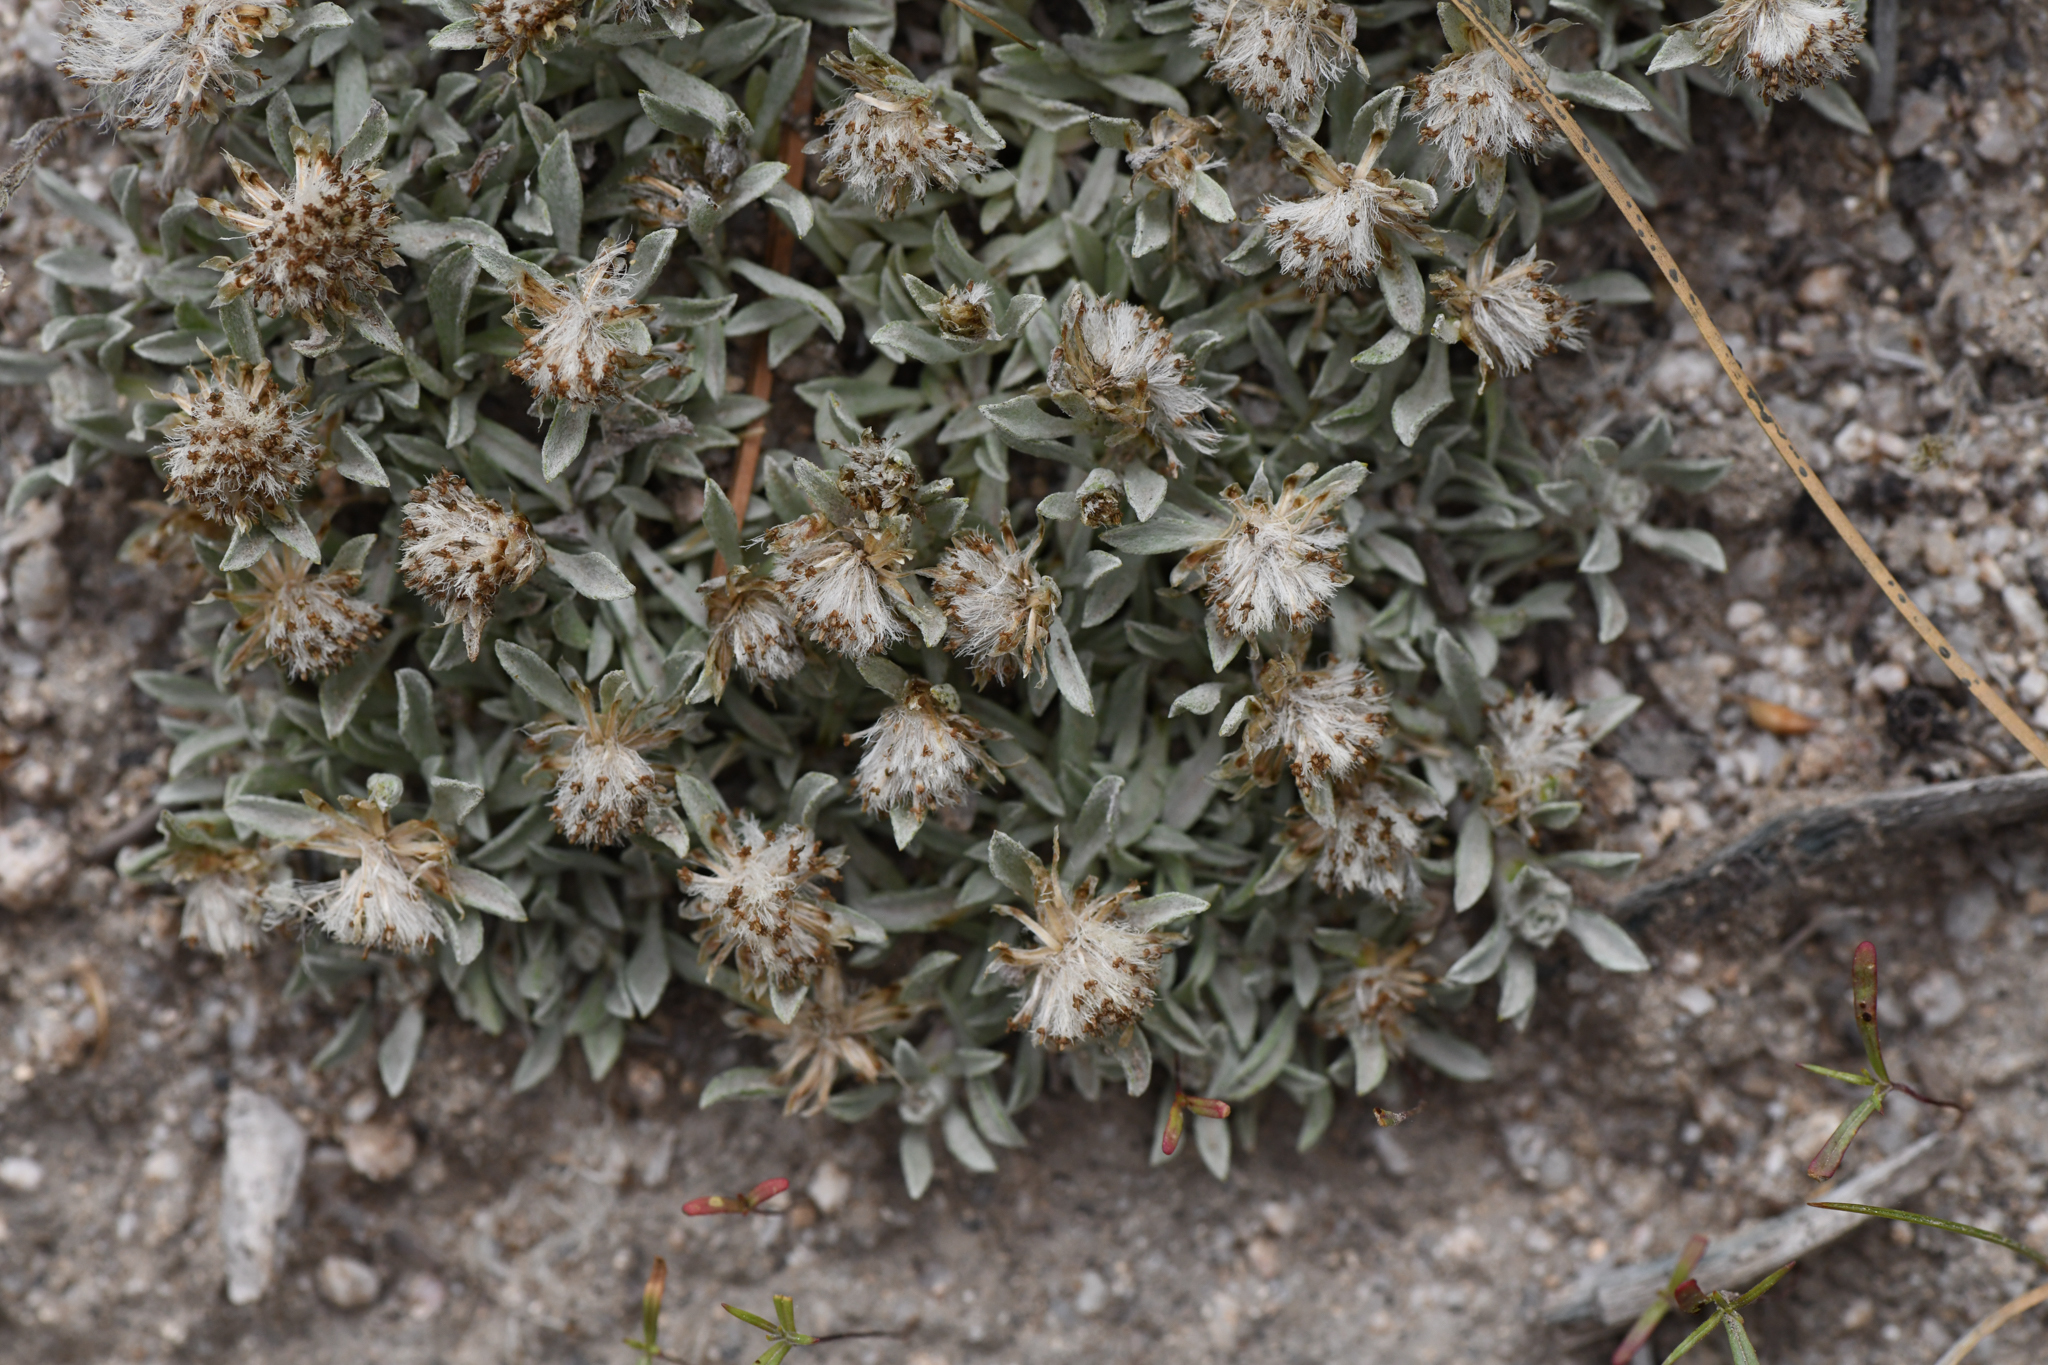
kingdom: Plantae
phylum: Tracheophyta
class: Magnoliopsida
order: Asterales
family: Asteraceae
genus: Antennaria
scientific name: Antennaria dimorpha
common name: Cushion pussytoes
